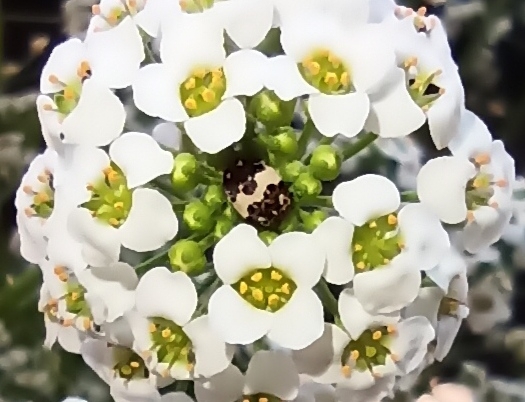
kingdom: Animalia
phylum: Arthropoda
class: Insecta
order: Coleoptera
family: Dermestidae
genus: Anthrenus
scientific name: Anthrenus isabellinus
